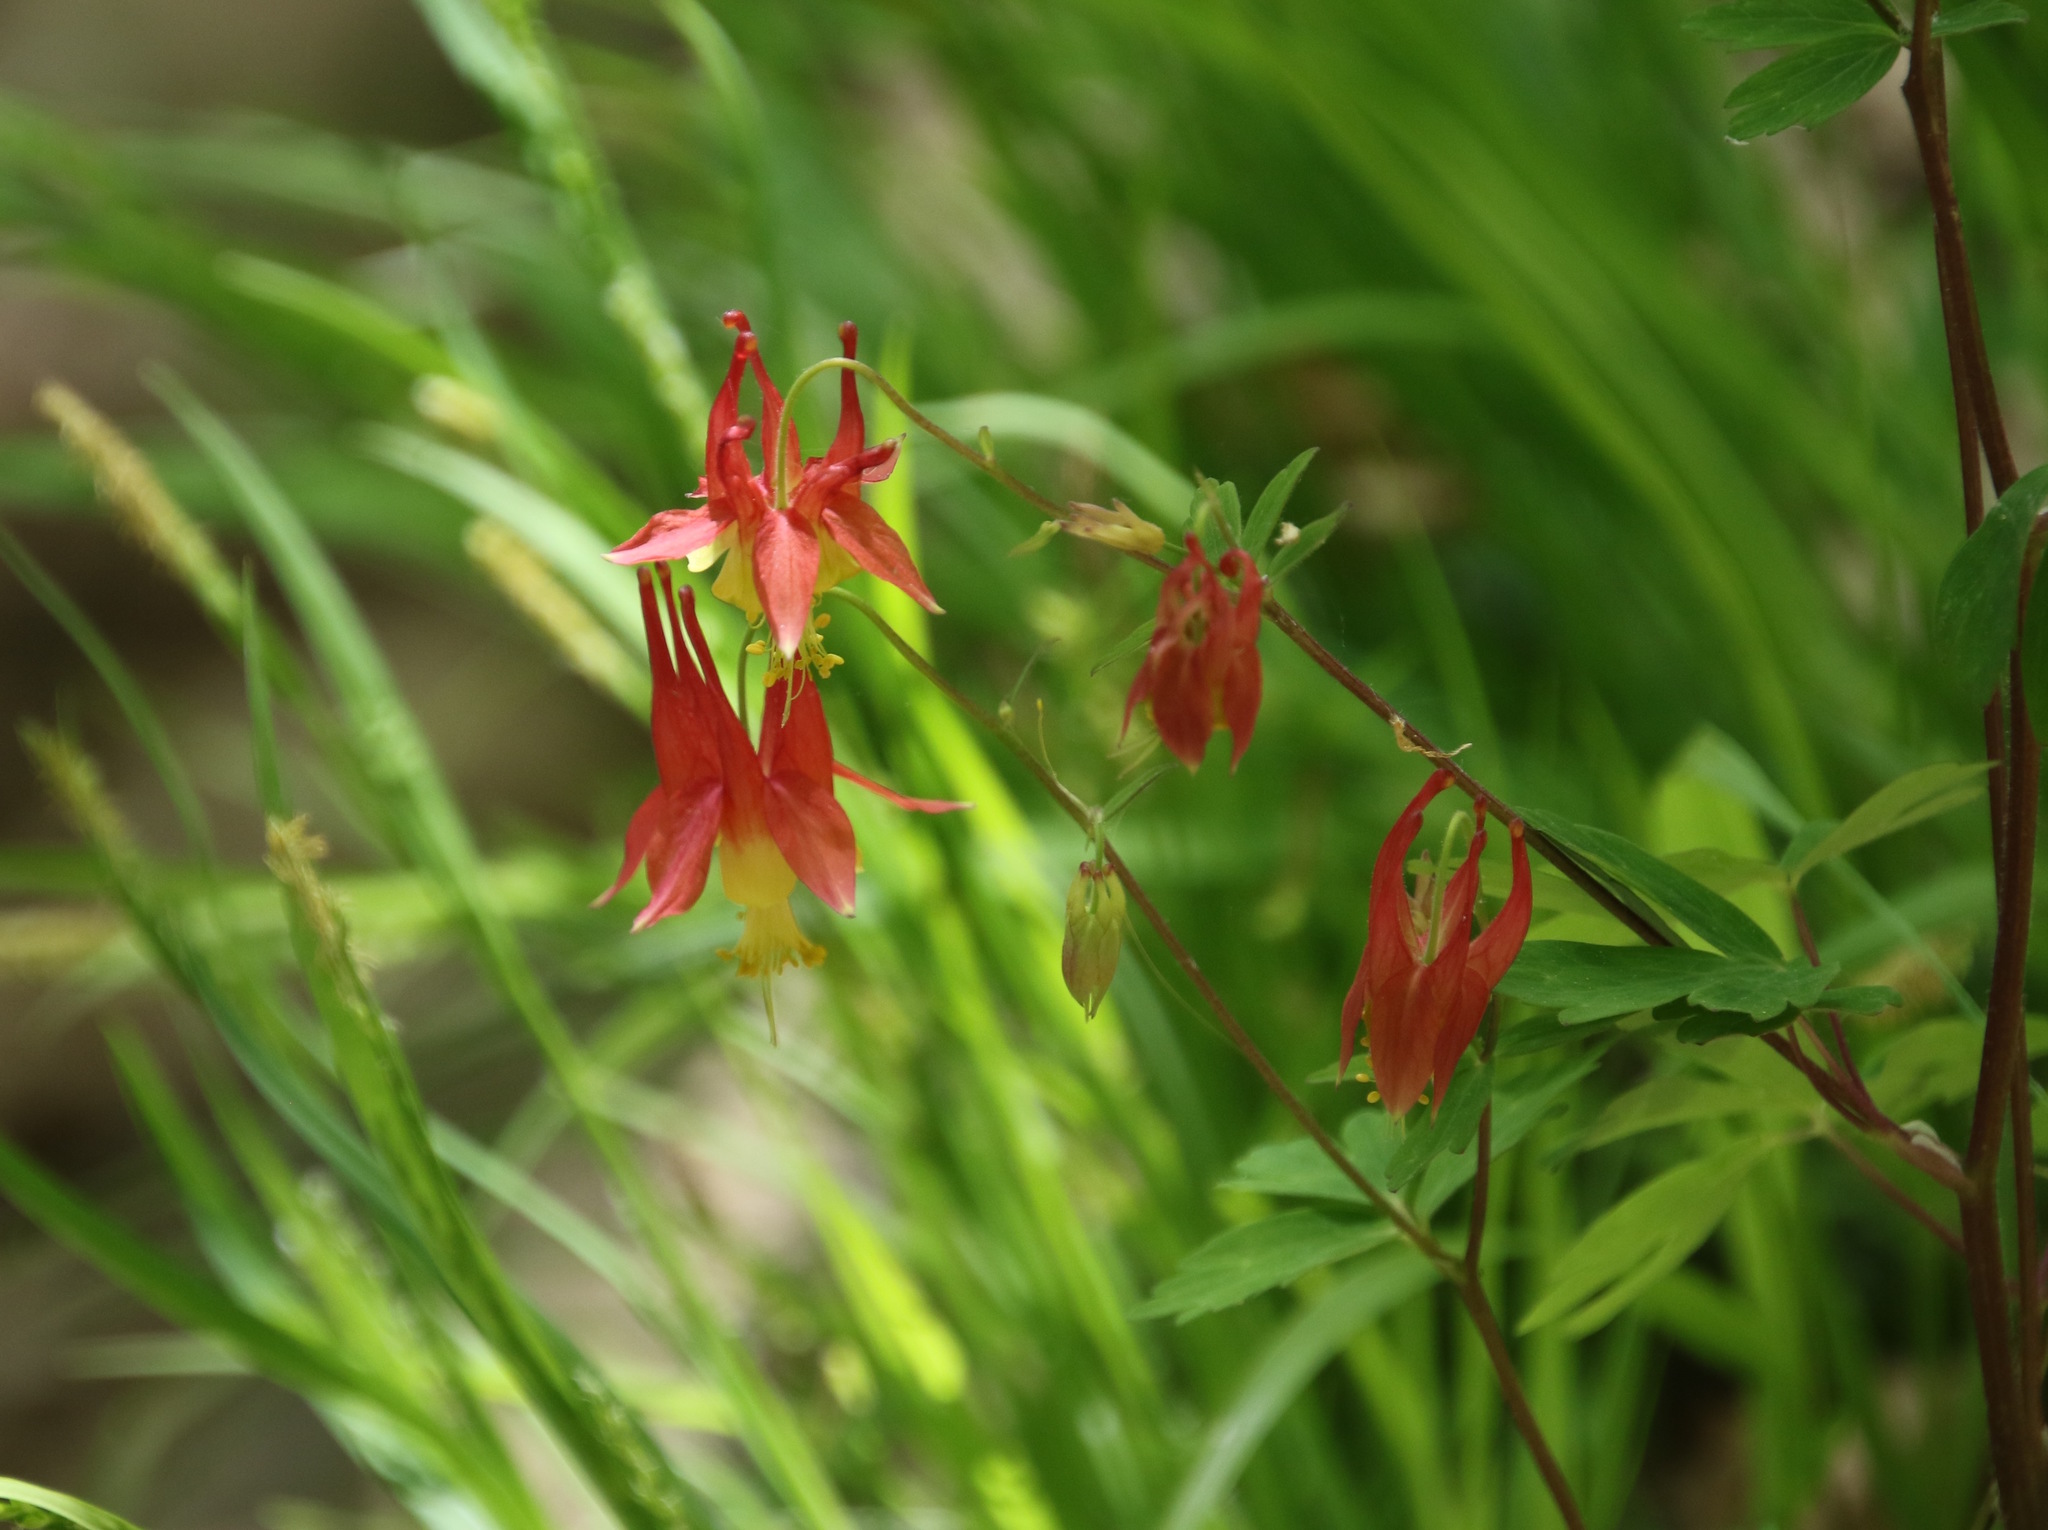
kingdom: Plantae
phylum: Tracheophyta
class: Magnoliopsida
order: Ranunculales
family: Ranunculaceae
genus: Aquilegia
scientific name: Aquilegia canadensis
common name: American columbine
